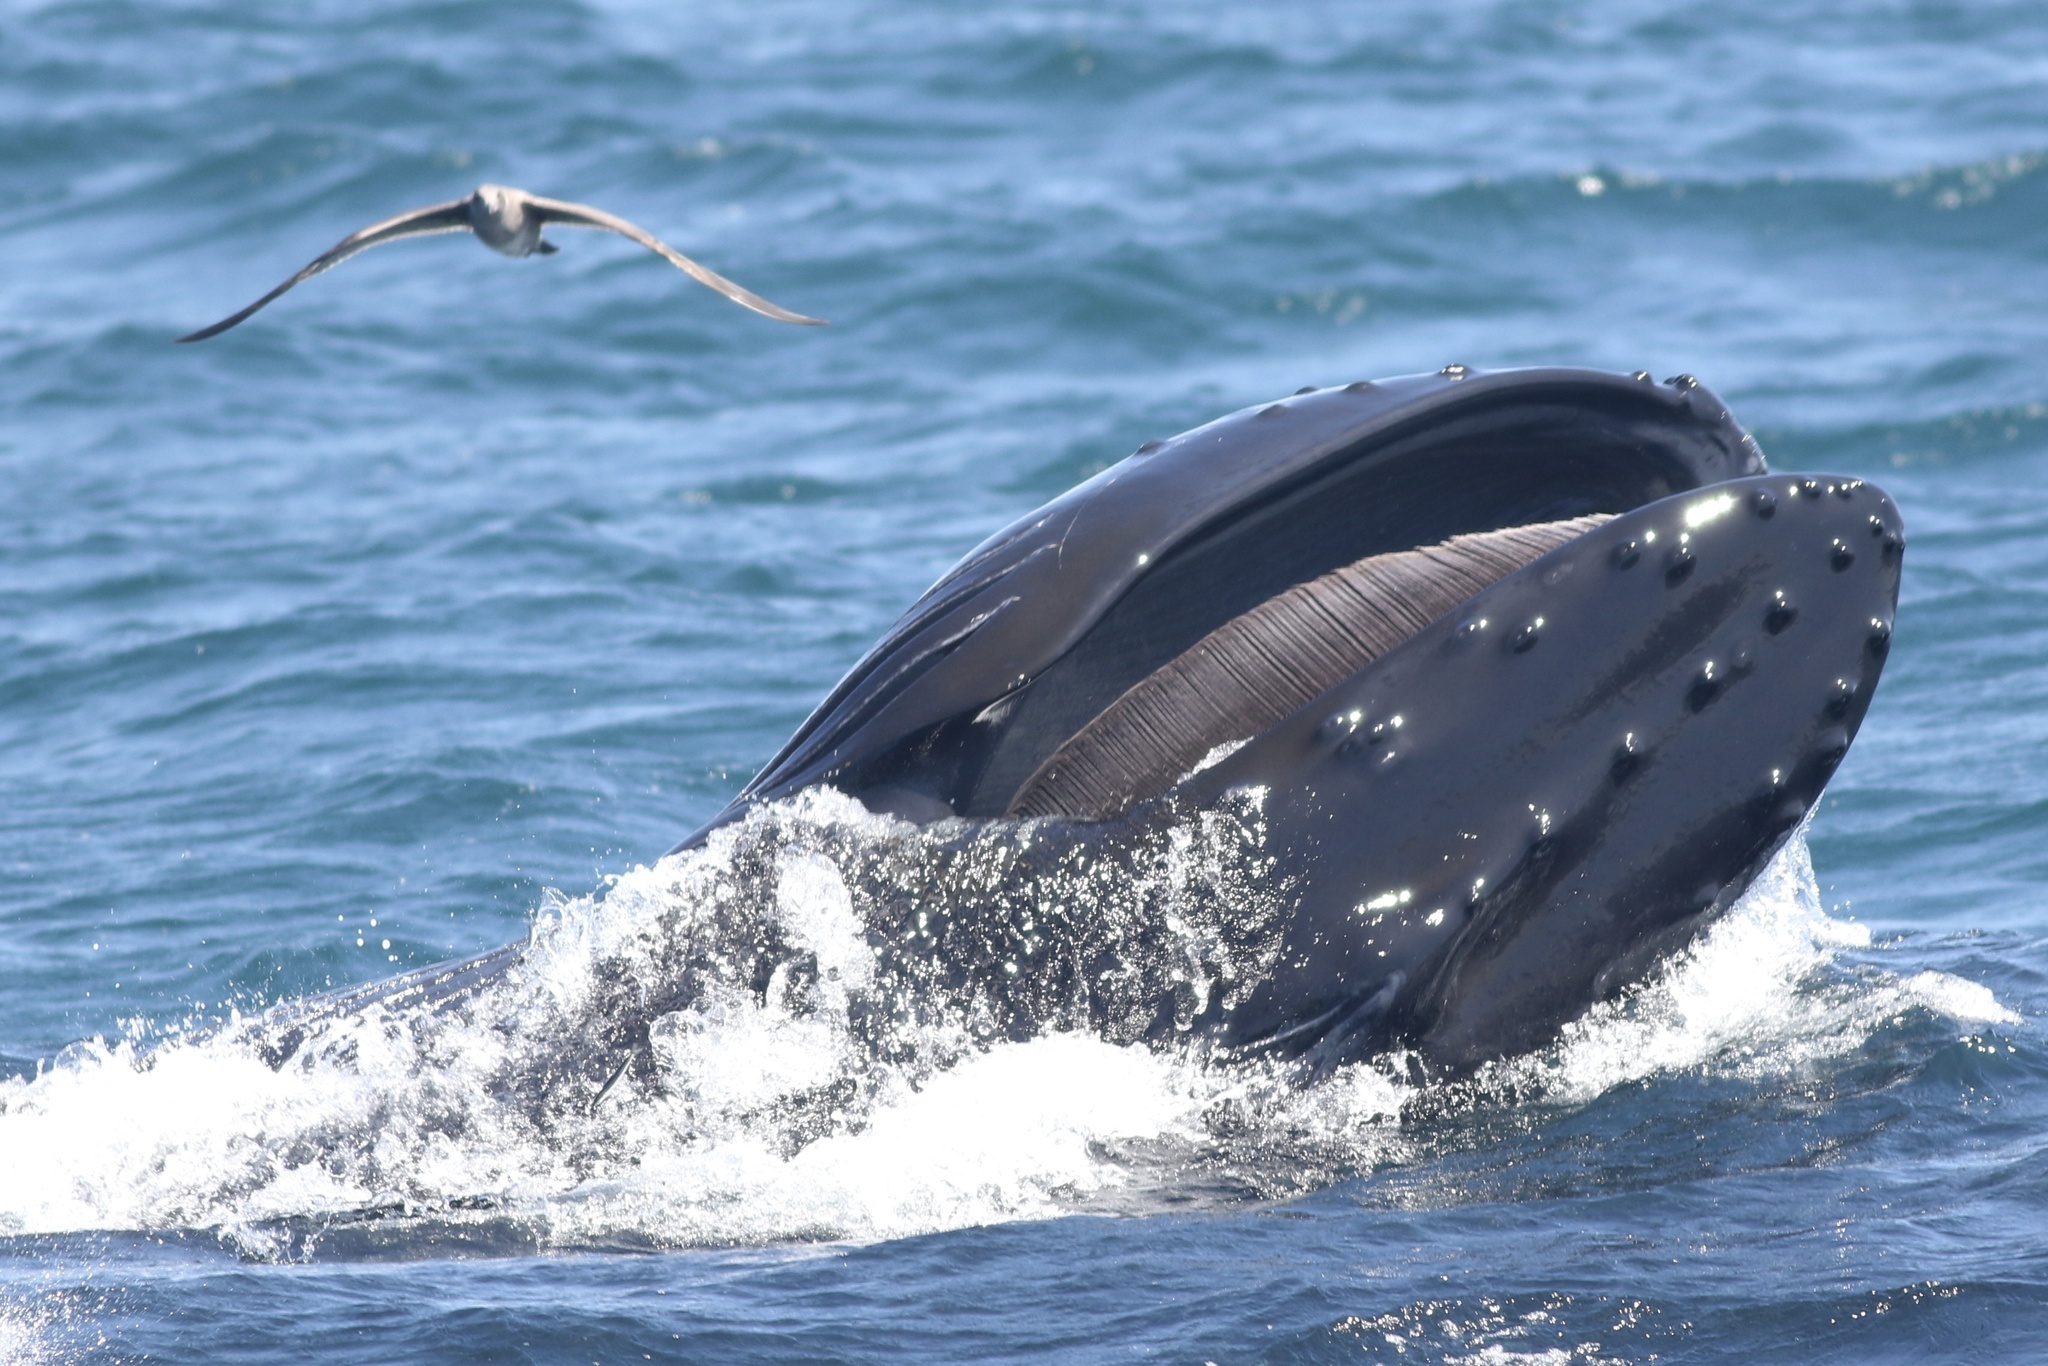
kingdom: Animalia
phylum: Chordata
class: Mammalia
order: Cetacea
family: Balaenopteridae
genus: Megaptera
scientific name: Megaptera novaeangliae
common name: Humpback whale
